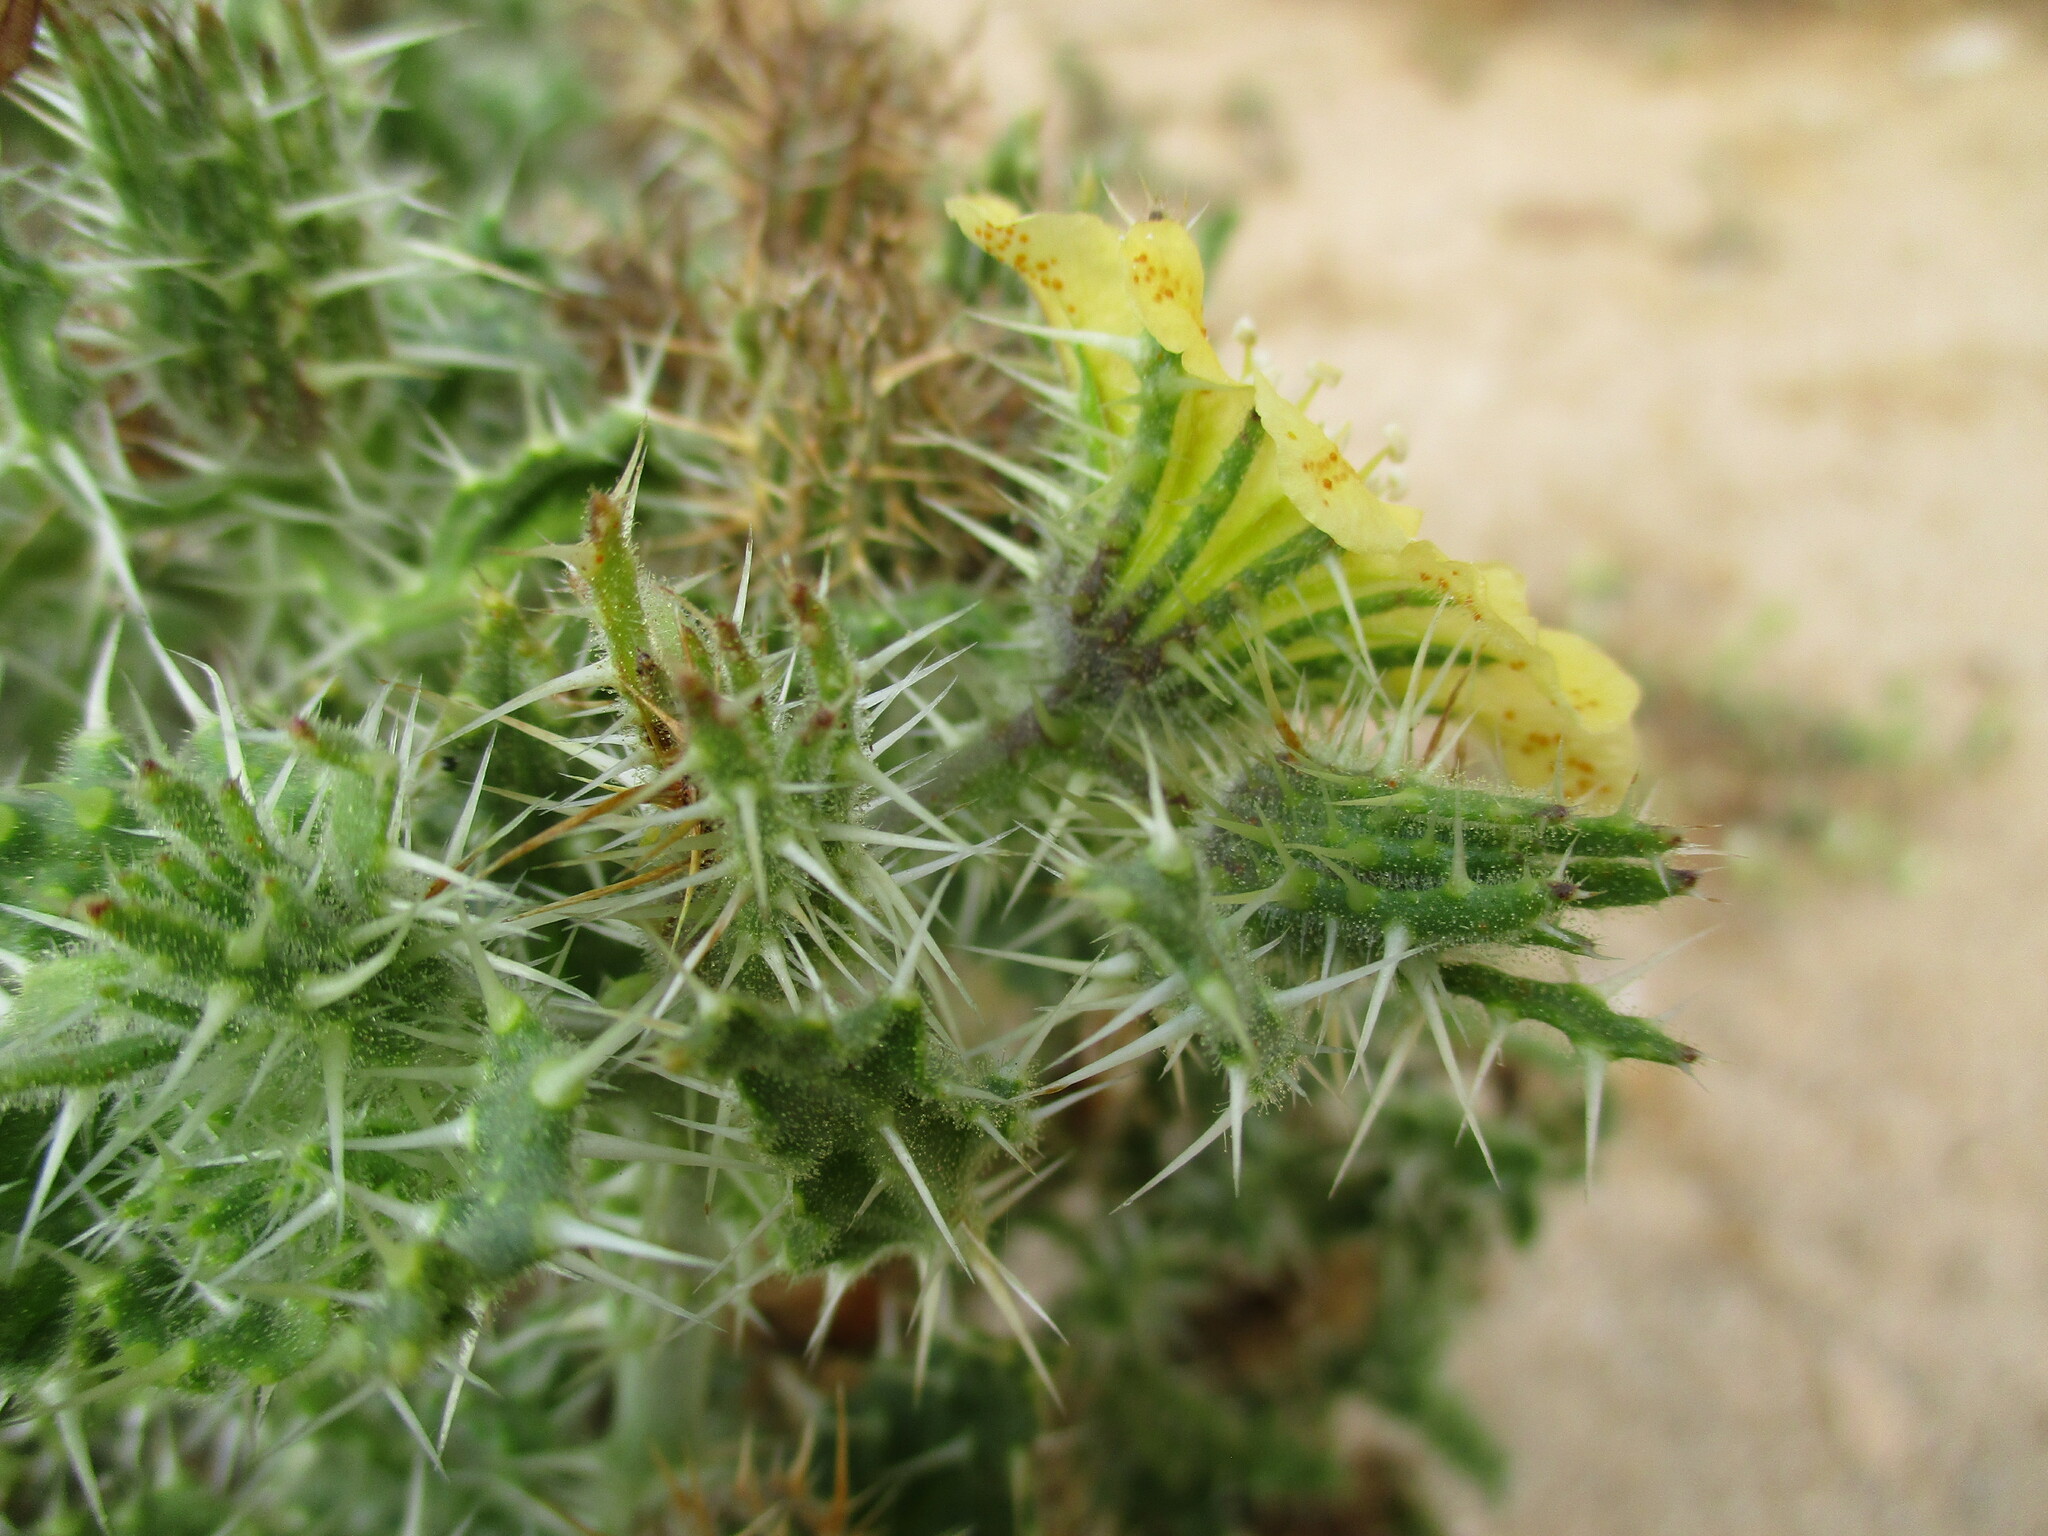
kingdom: Plantae
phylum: Tracheophyta
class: Magnoliopsida
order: Boraginales
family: Codonaceae
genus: Codon
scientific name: Codon schenckii
